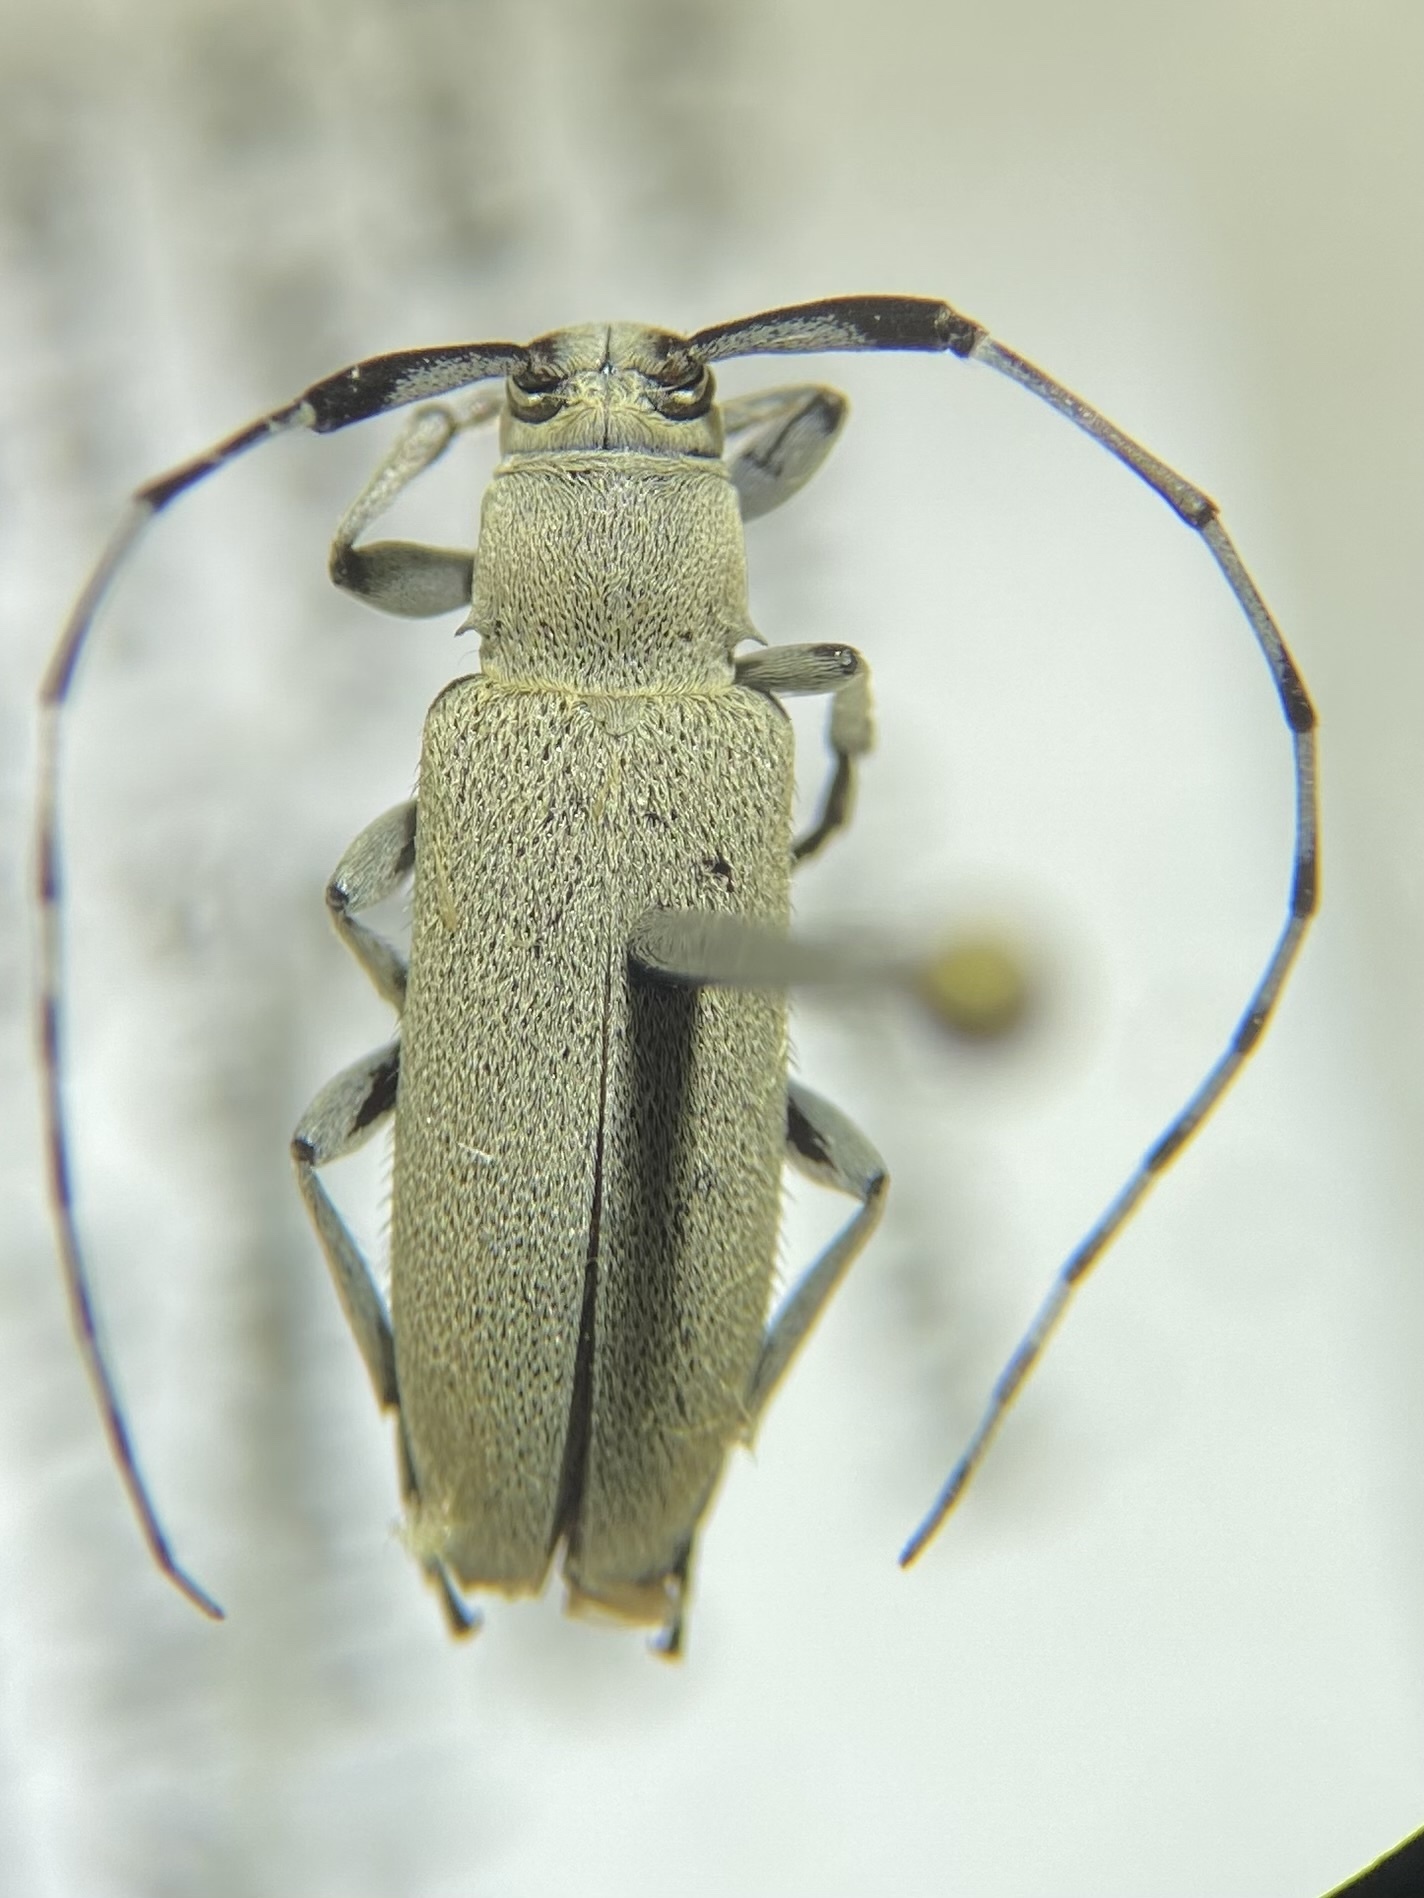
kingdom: Animalia
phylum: Arthropoda
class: Insecta
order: Coleoptera
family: Cerambycidae
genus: Dectes
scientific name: Dectes texanus
